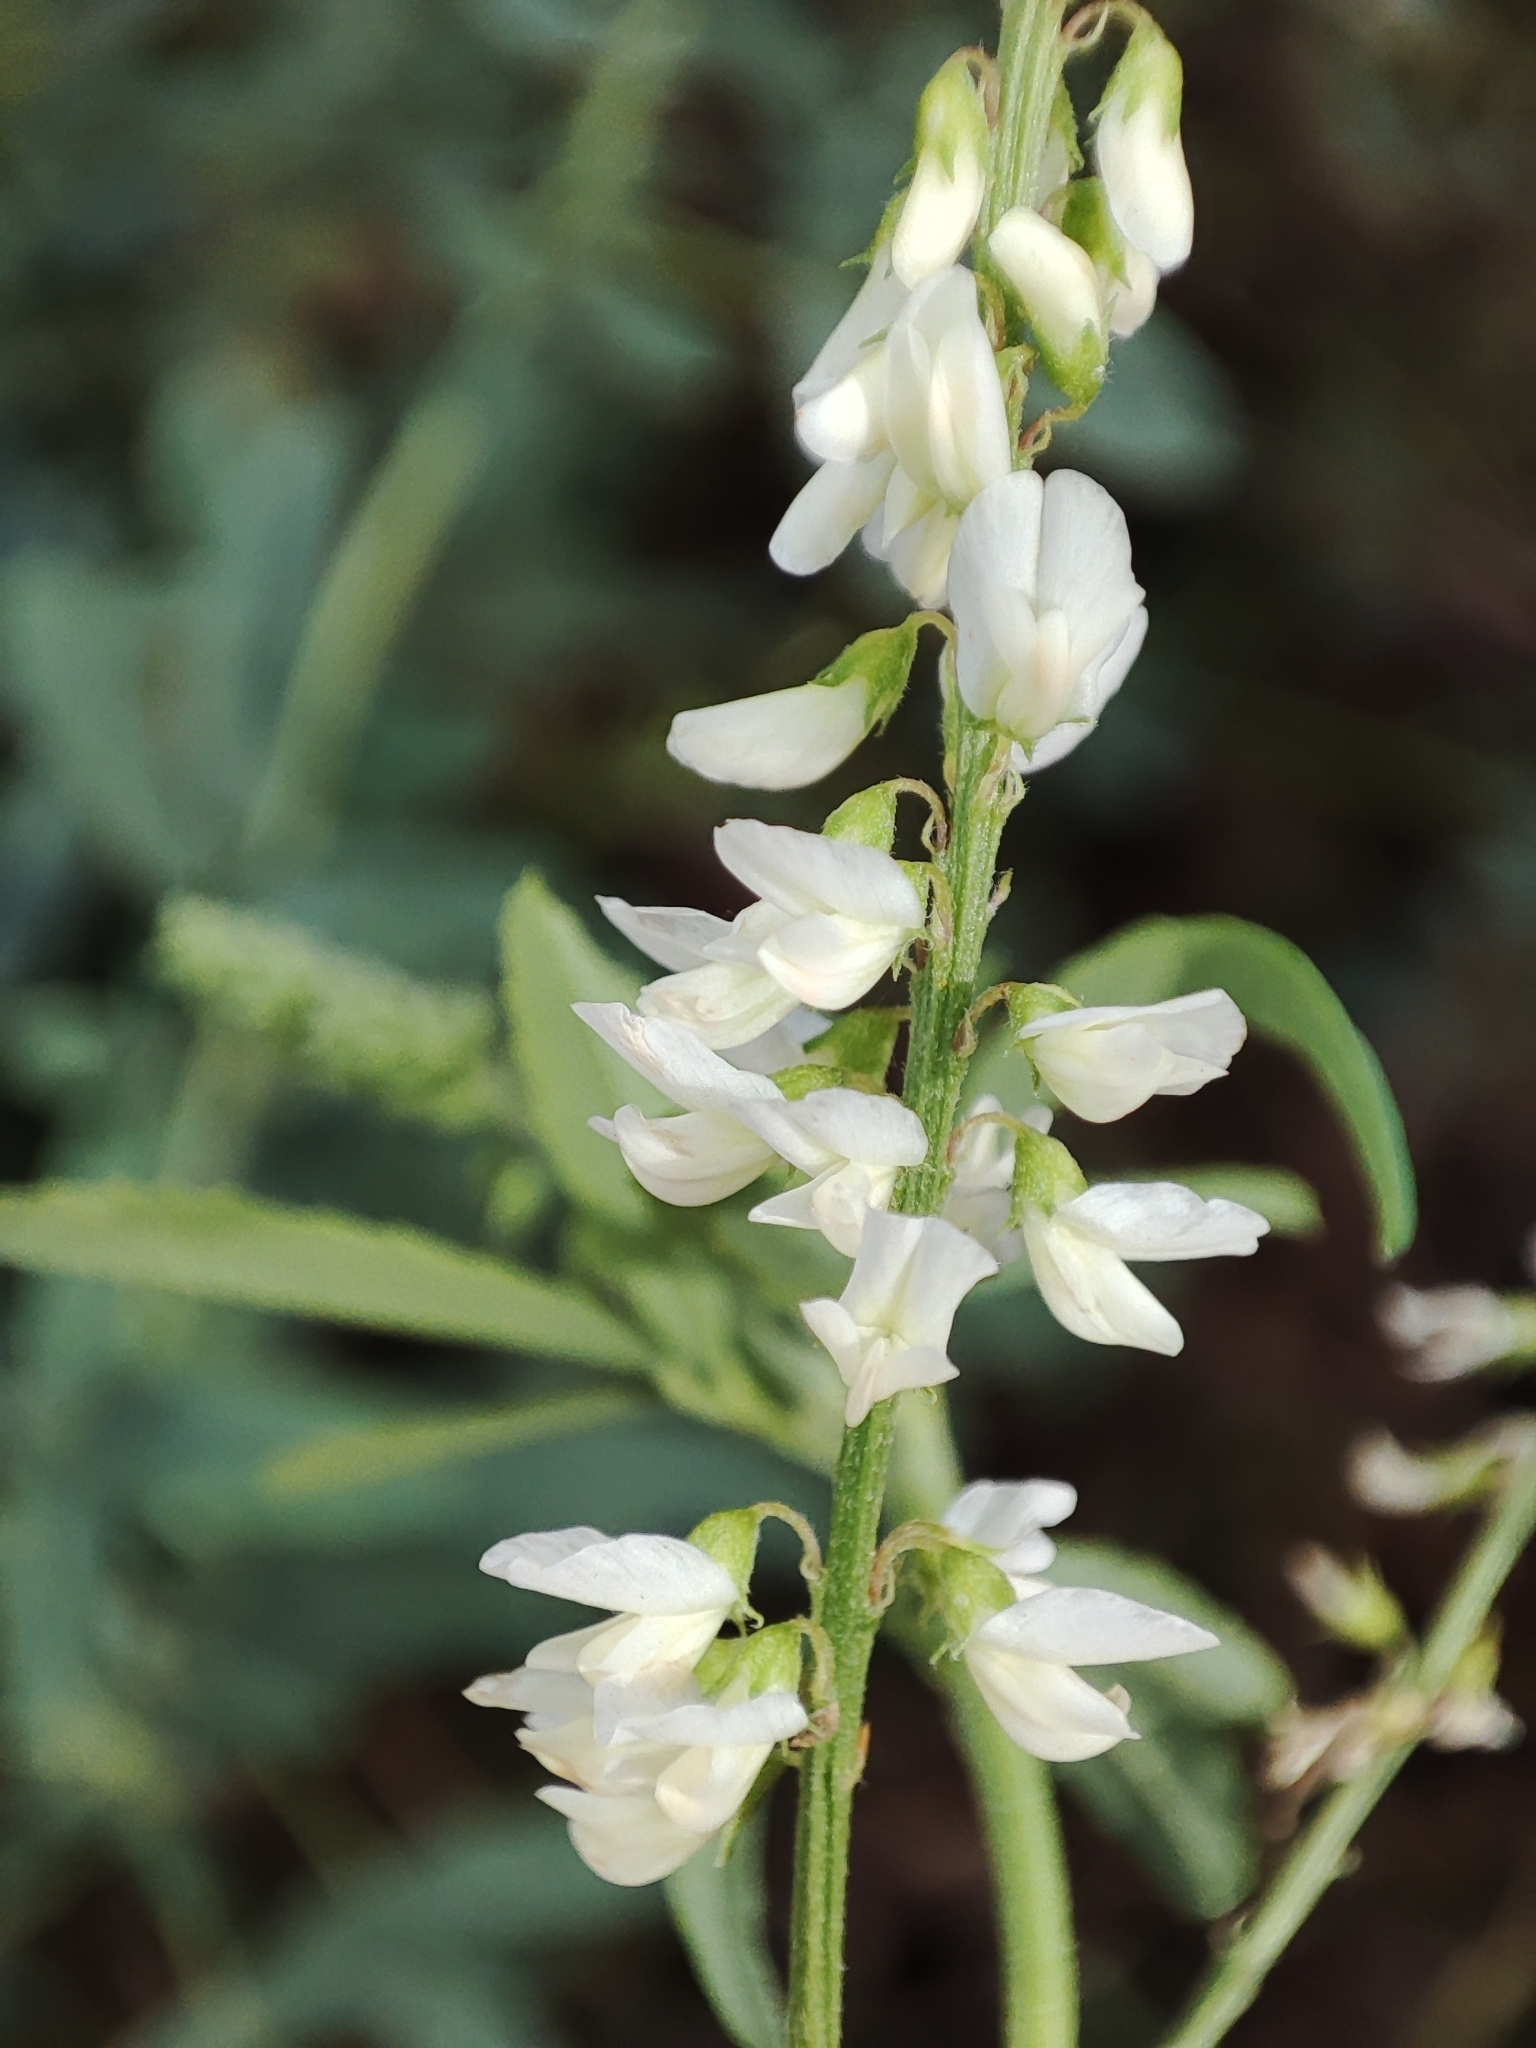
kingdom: Plantae
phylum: Tracheophyta
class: Magnoliopsida
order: Fabales
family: Fabaceae
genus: Melilotus
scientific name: Melilotus albus
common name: White melilot
